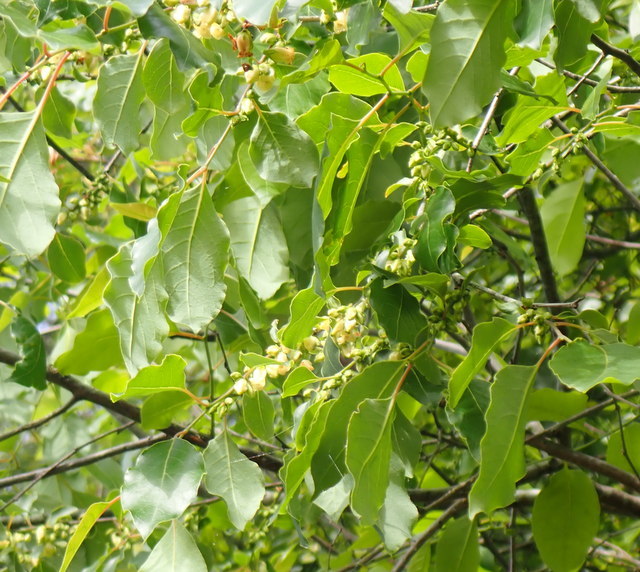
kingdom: Plantae
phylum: Tracheophyta
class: Magnoliopsida
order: Ericales
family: Ebenaceae
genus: Diospyros
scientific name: Diospyros virginiana
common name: Persimmon
